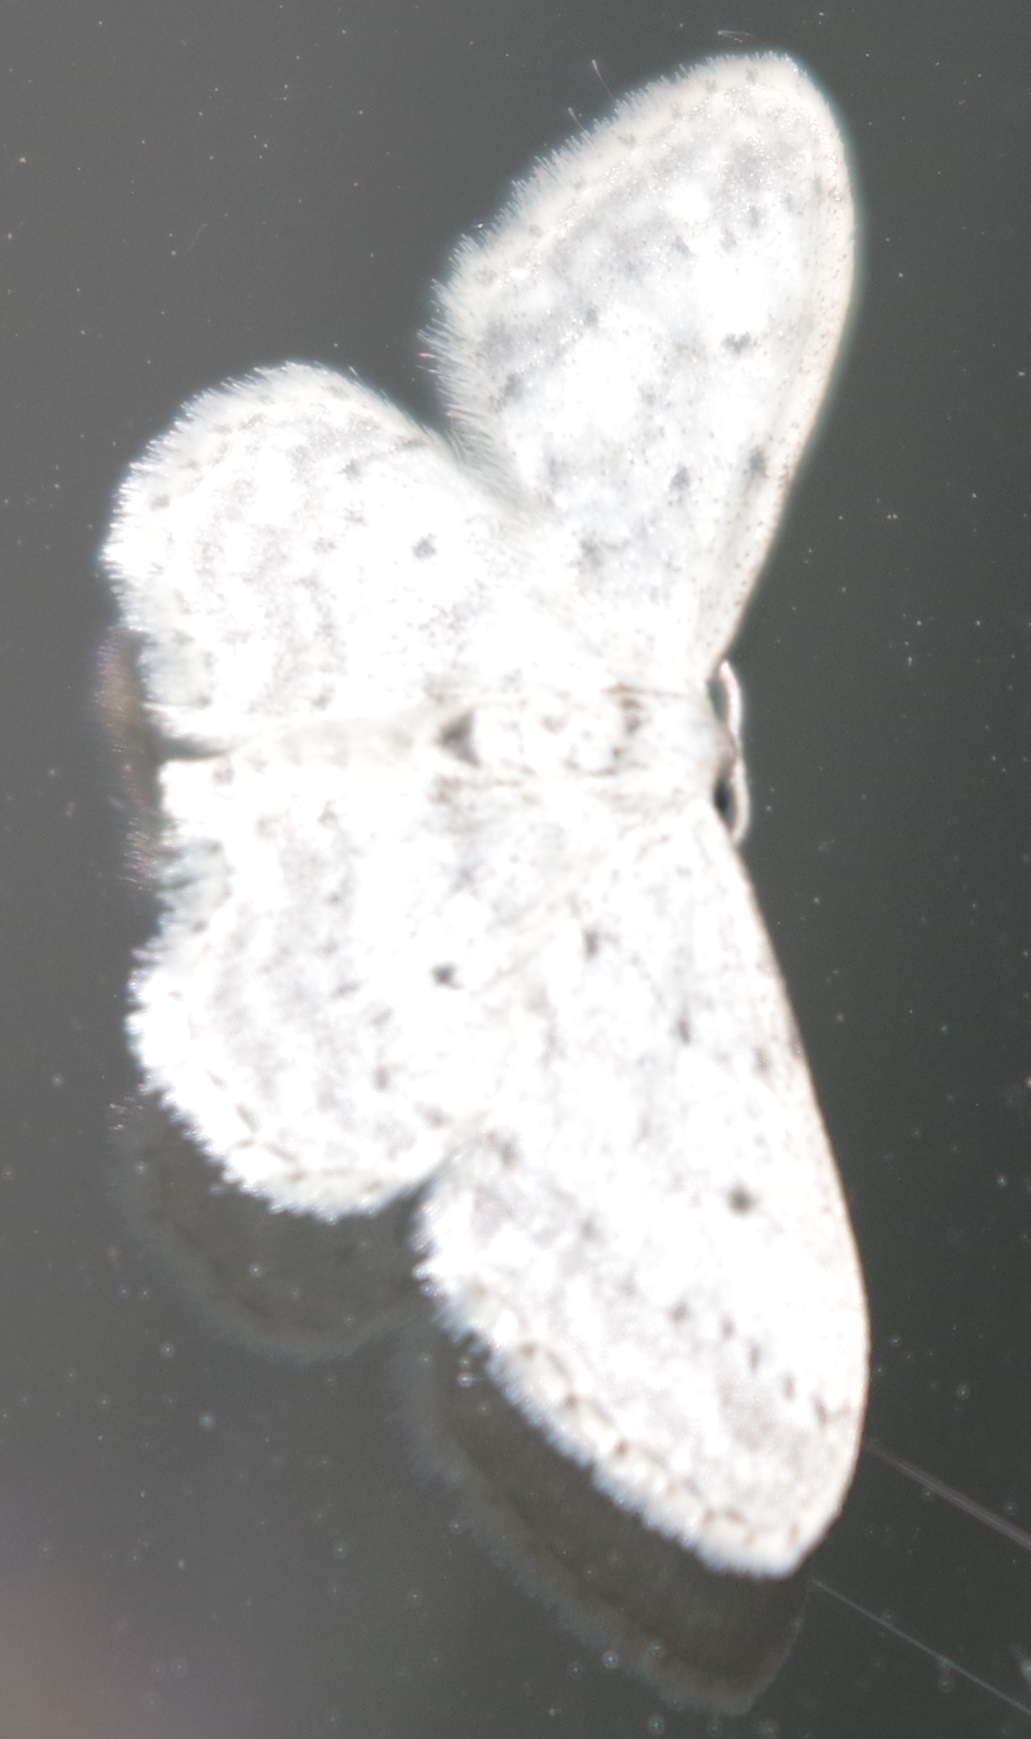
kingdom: Animalia
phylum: Arthropoda
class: Insecta
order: Lepidoptera
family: Geometridae
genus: Idaea
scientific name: Idaea seriata
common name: Small dusty wave
